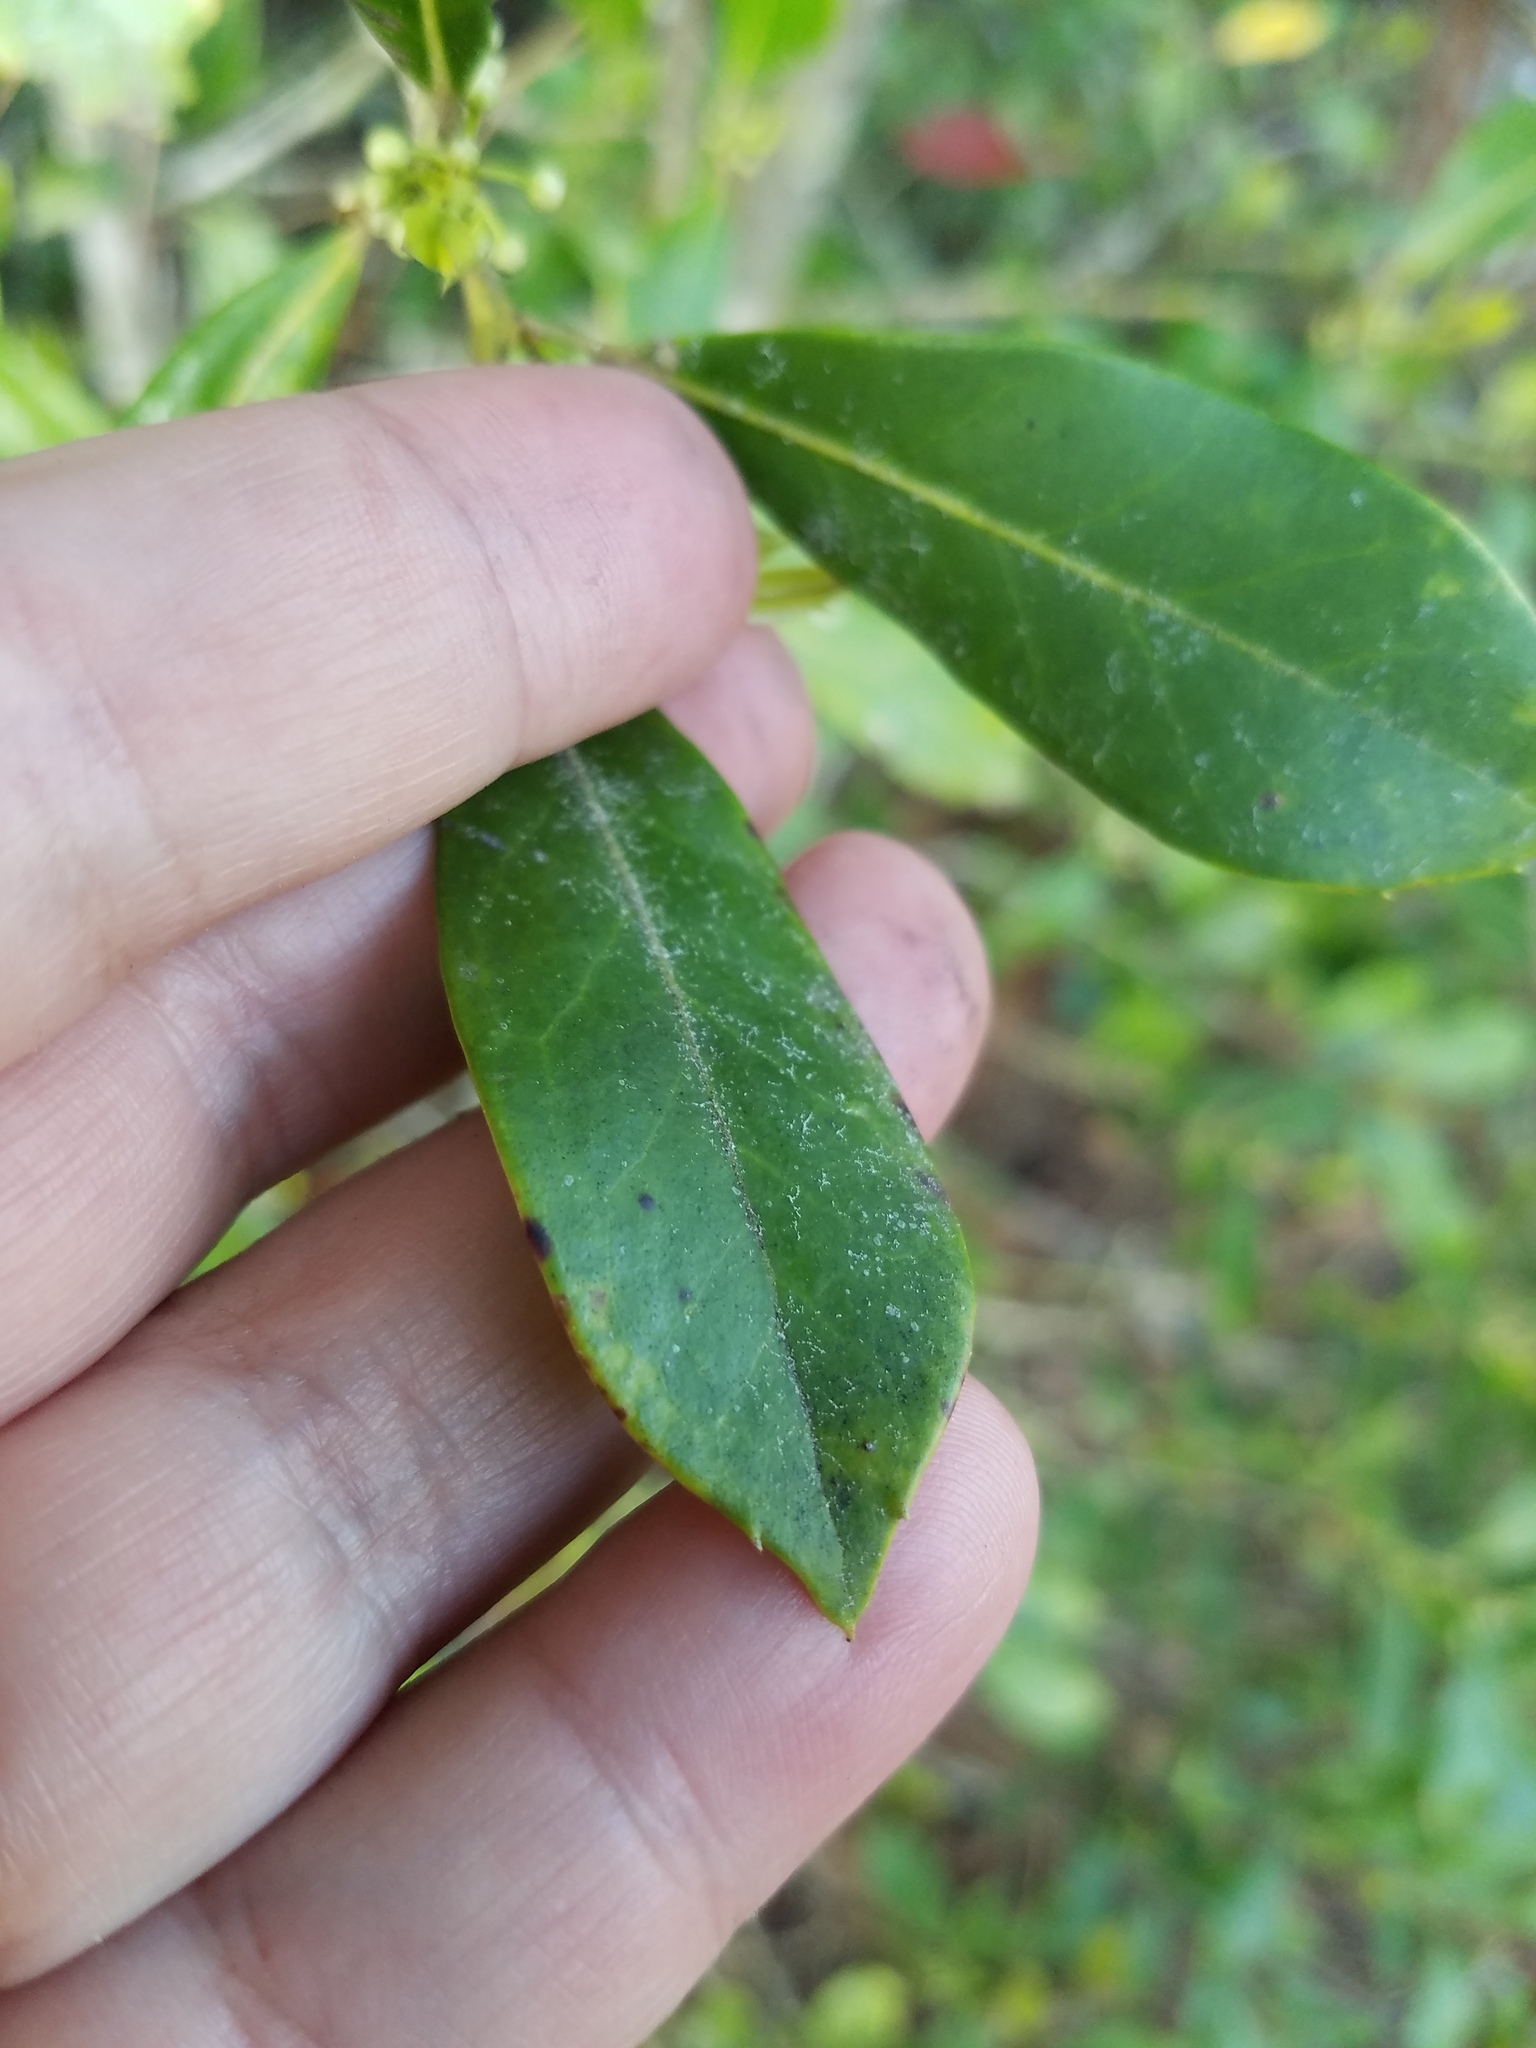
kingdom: Plantae
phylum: Tracheophyta
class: Magnoliopsida
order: Aquifoliales
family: Aquifoliaceae
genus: Ilex
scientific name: Ilex coriacea
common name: Sweet gallberry
